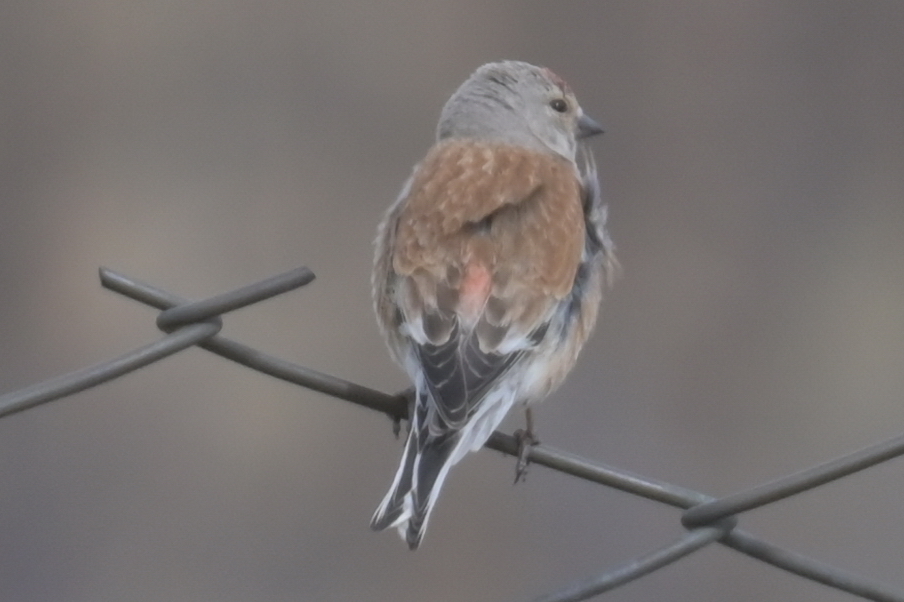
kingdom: Animalia
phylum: Chordata
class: Aves
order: Passeriformes
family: Fringillidae
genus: Linaria
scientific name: Linaria cannabina
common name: Common linnet
